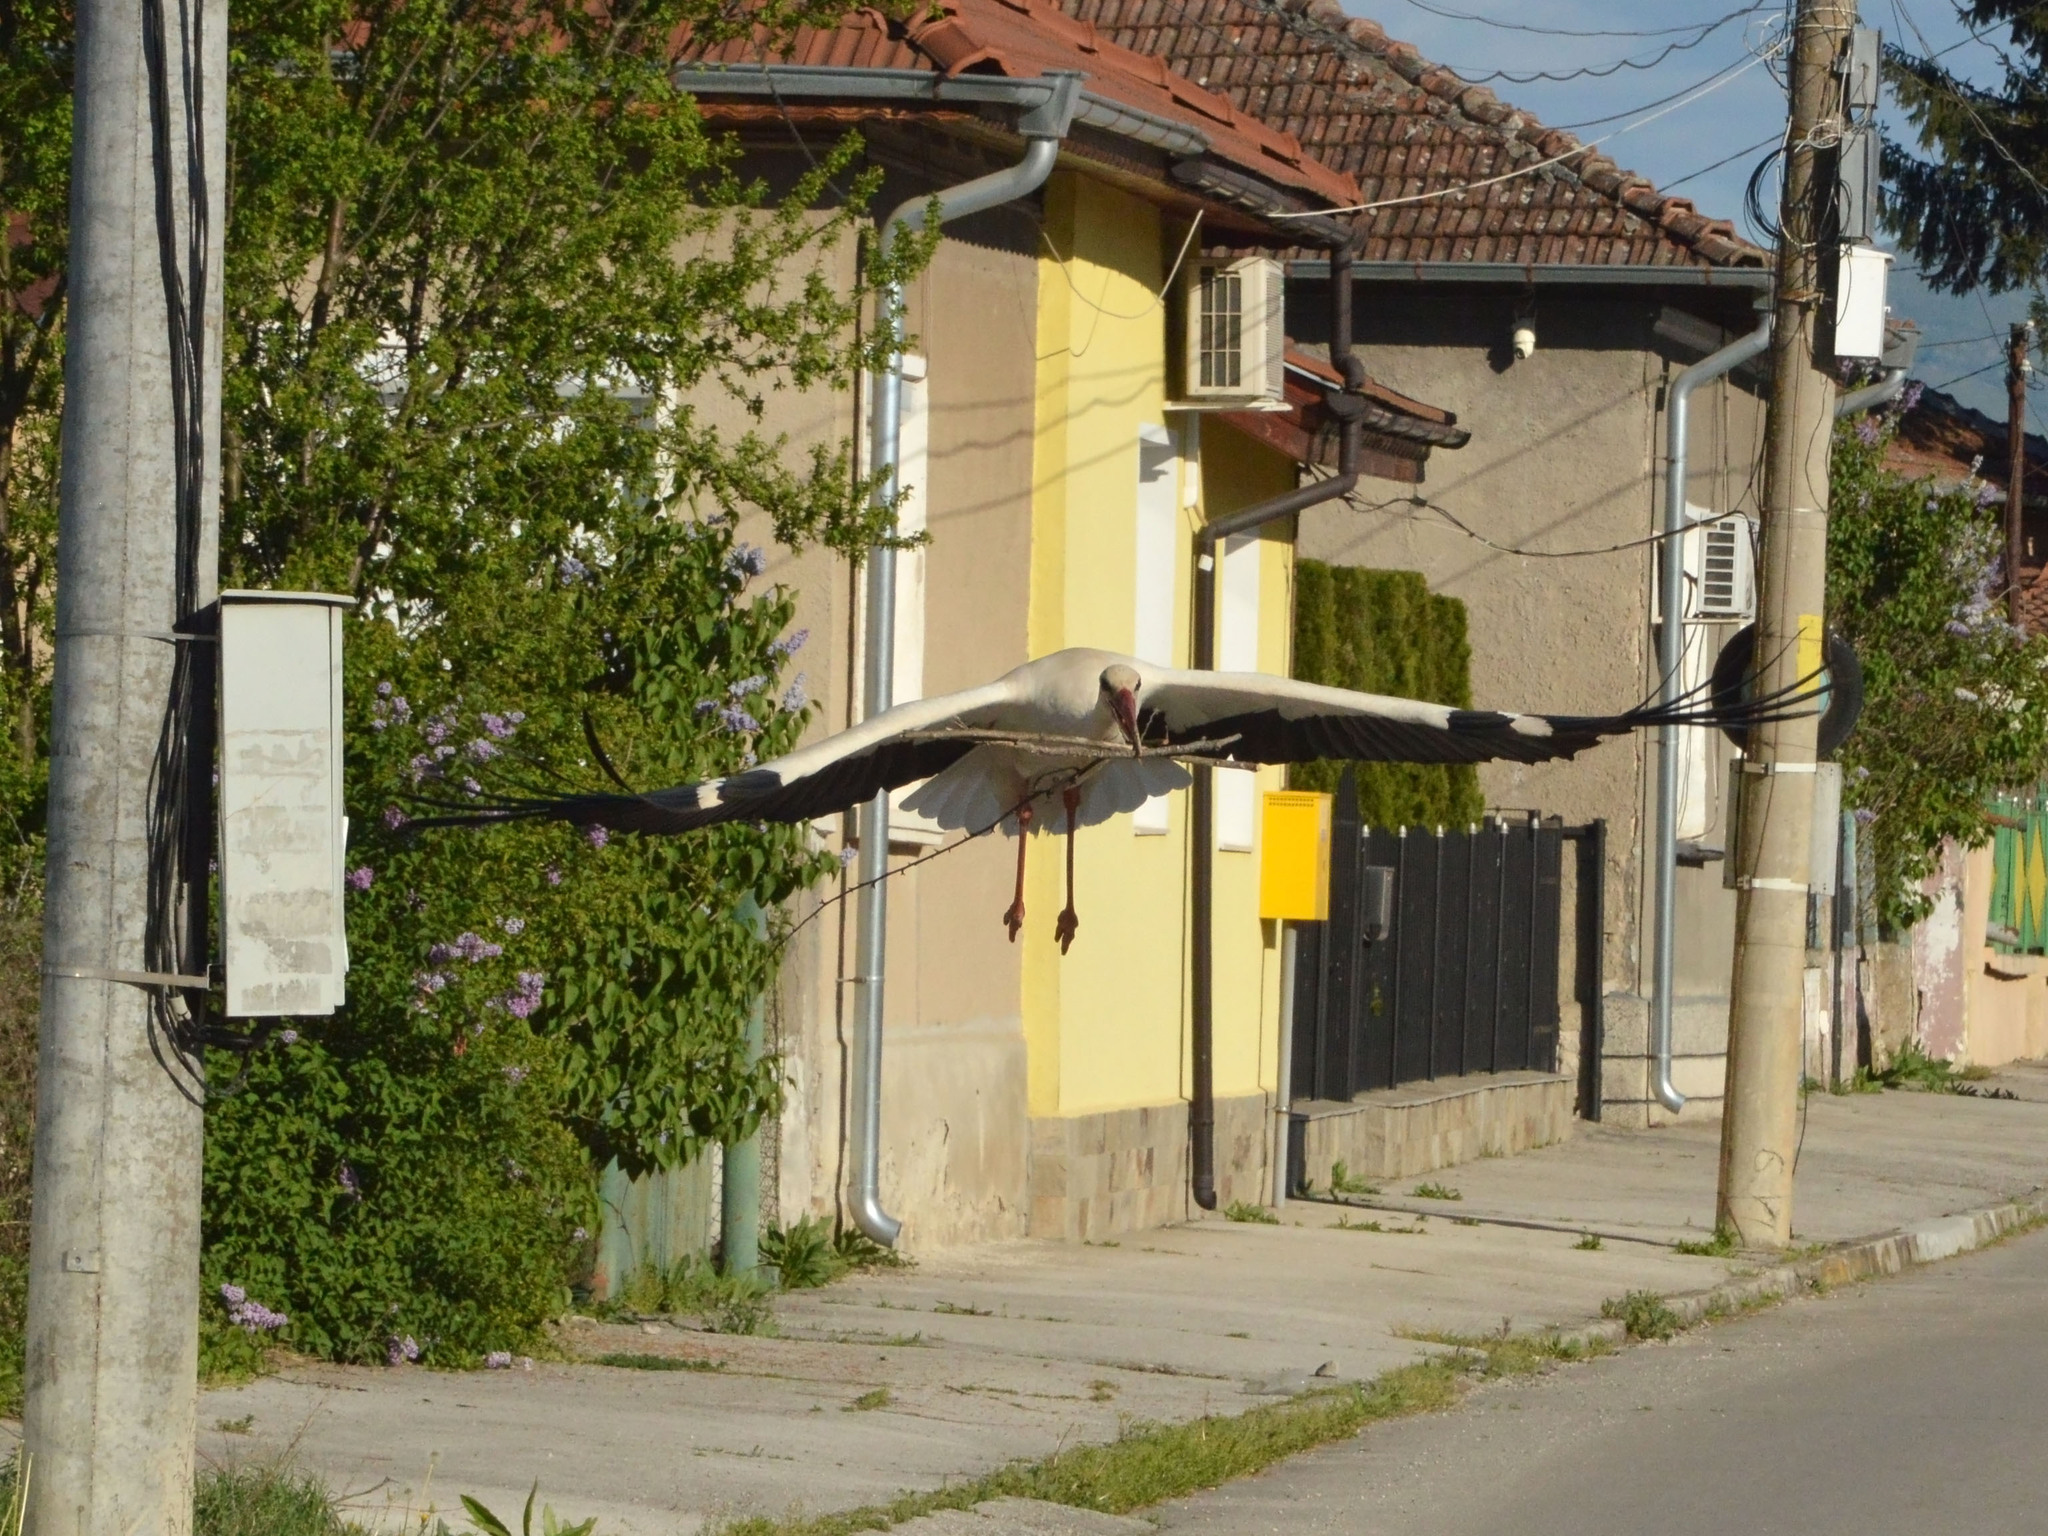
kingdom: Animalia
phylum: Chordata
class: Aves
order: Ciconiiformes
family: Ciconiidae
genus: Ciconia
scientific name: Ciconia ciconia
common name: White stork
